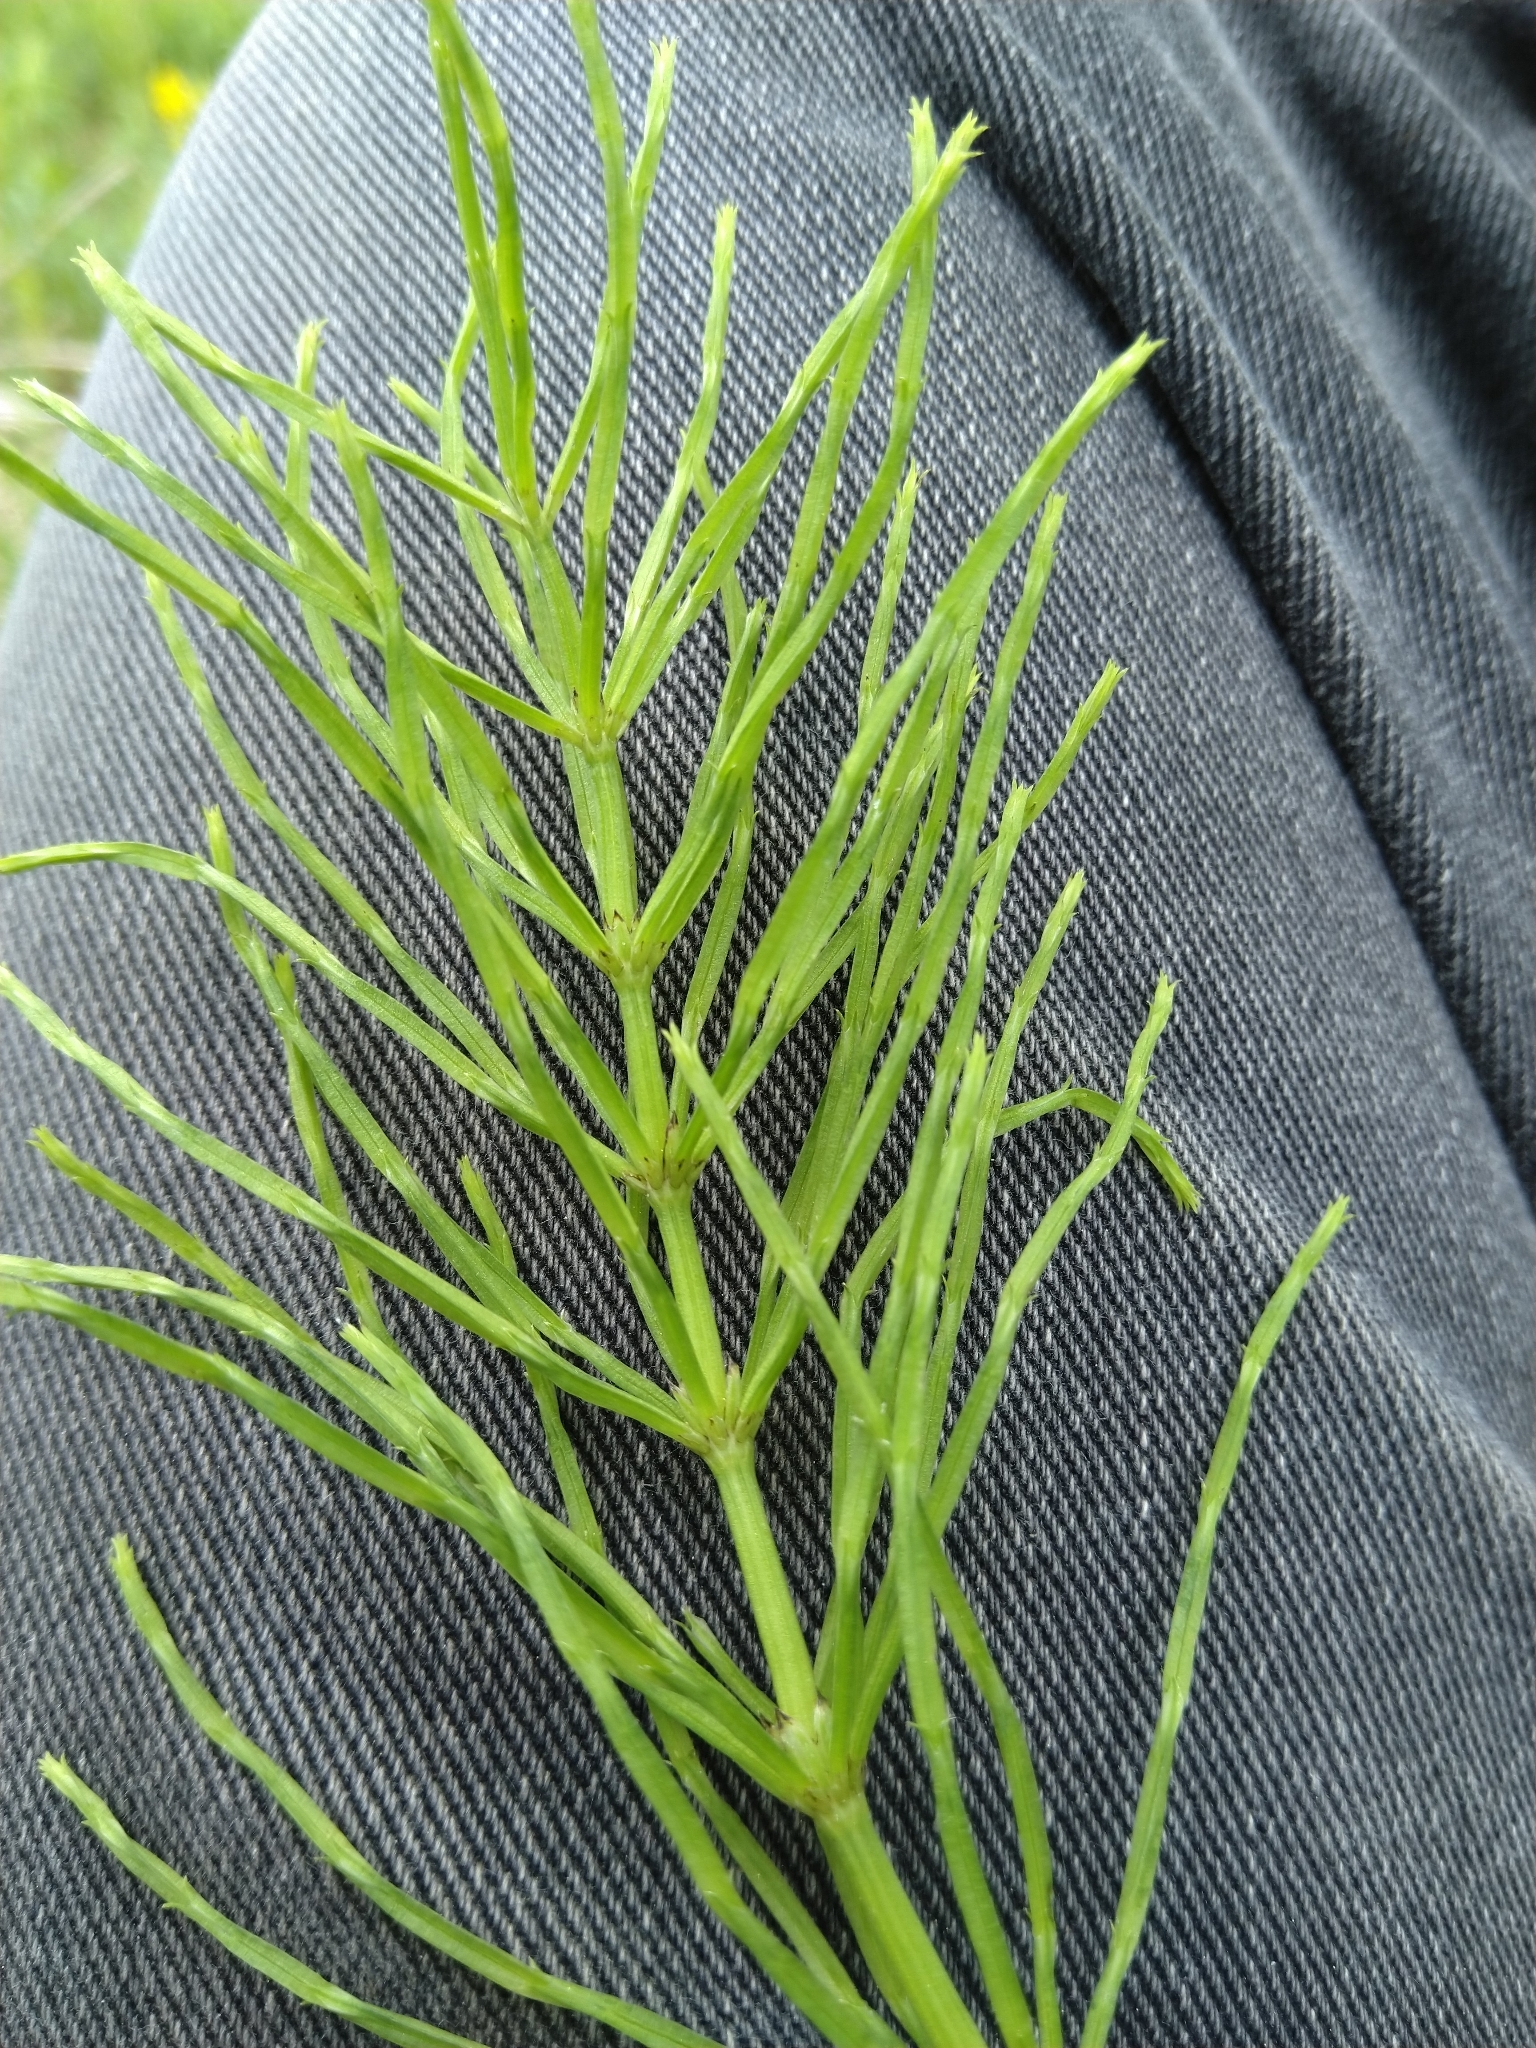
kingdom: Plantae
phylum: Tracheophyta
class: Polypodiopsida
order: Equisetales
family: Equisetaceae
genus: Equisetum
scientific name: Equisetum arvense
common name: Field horsetail
